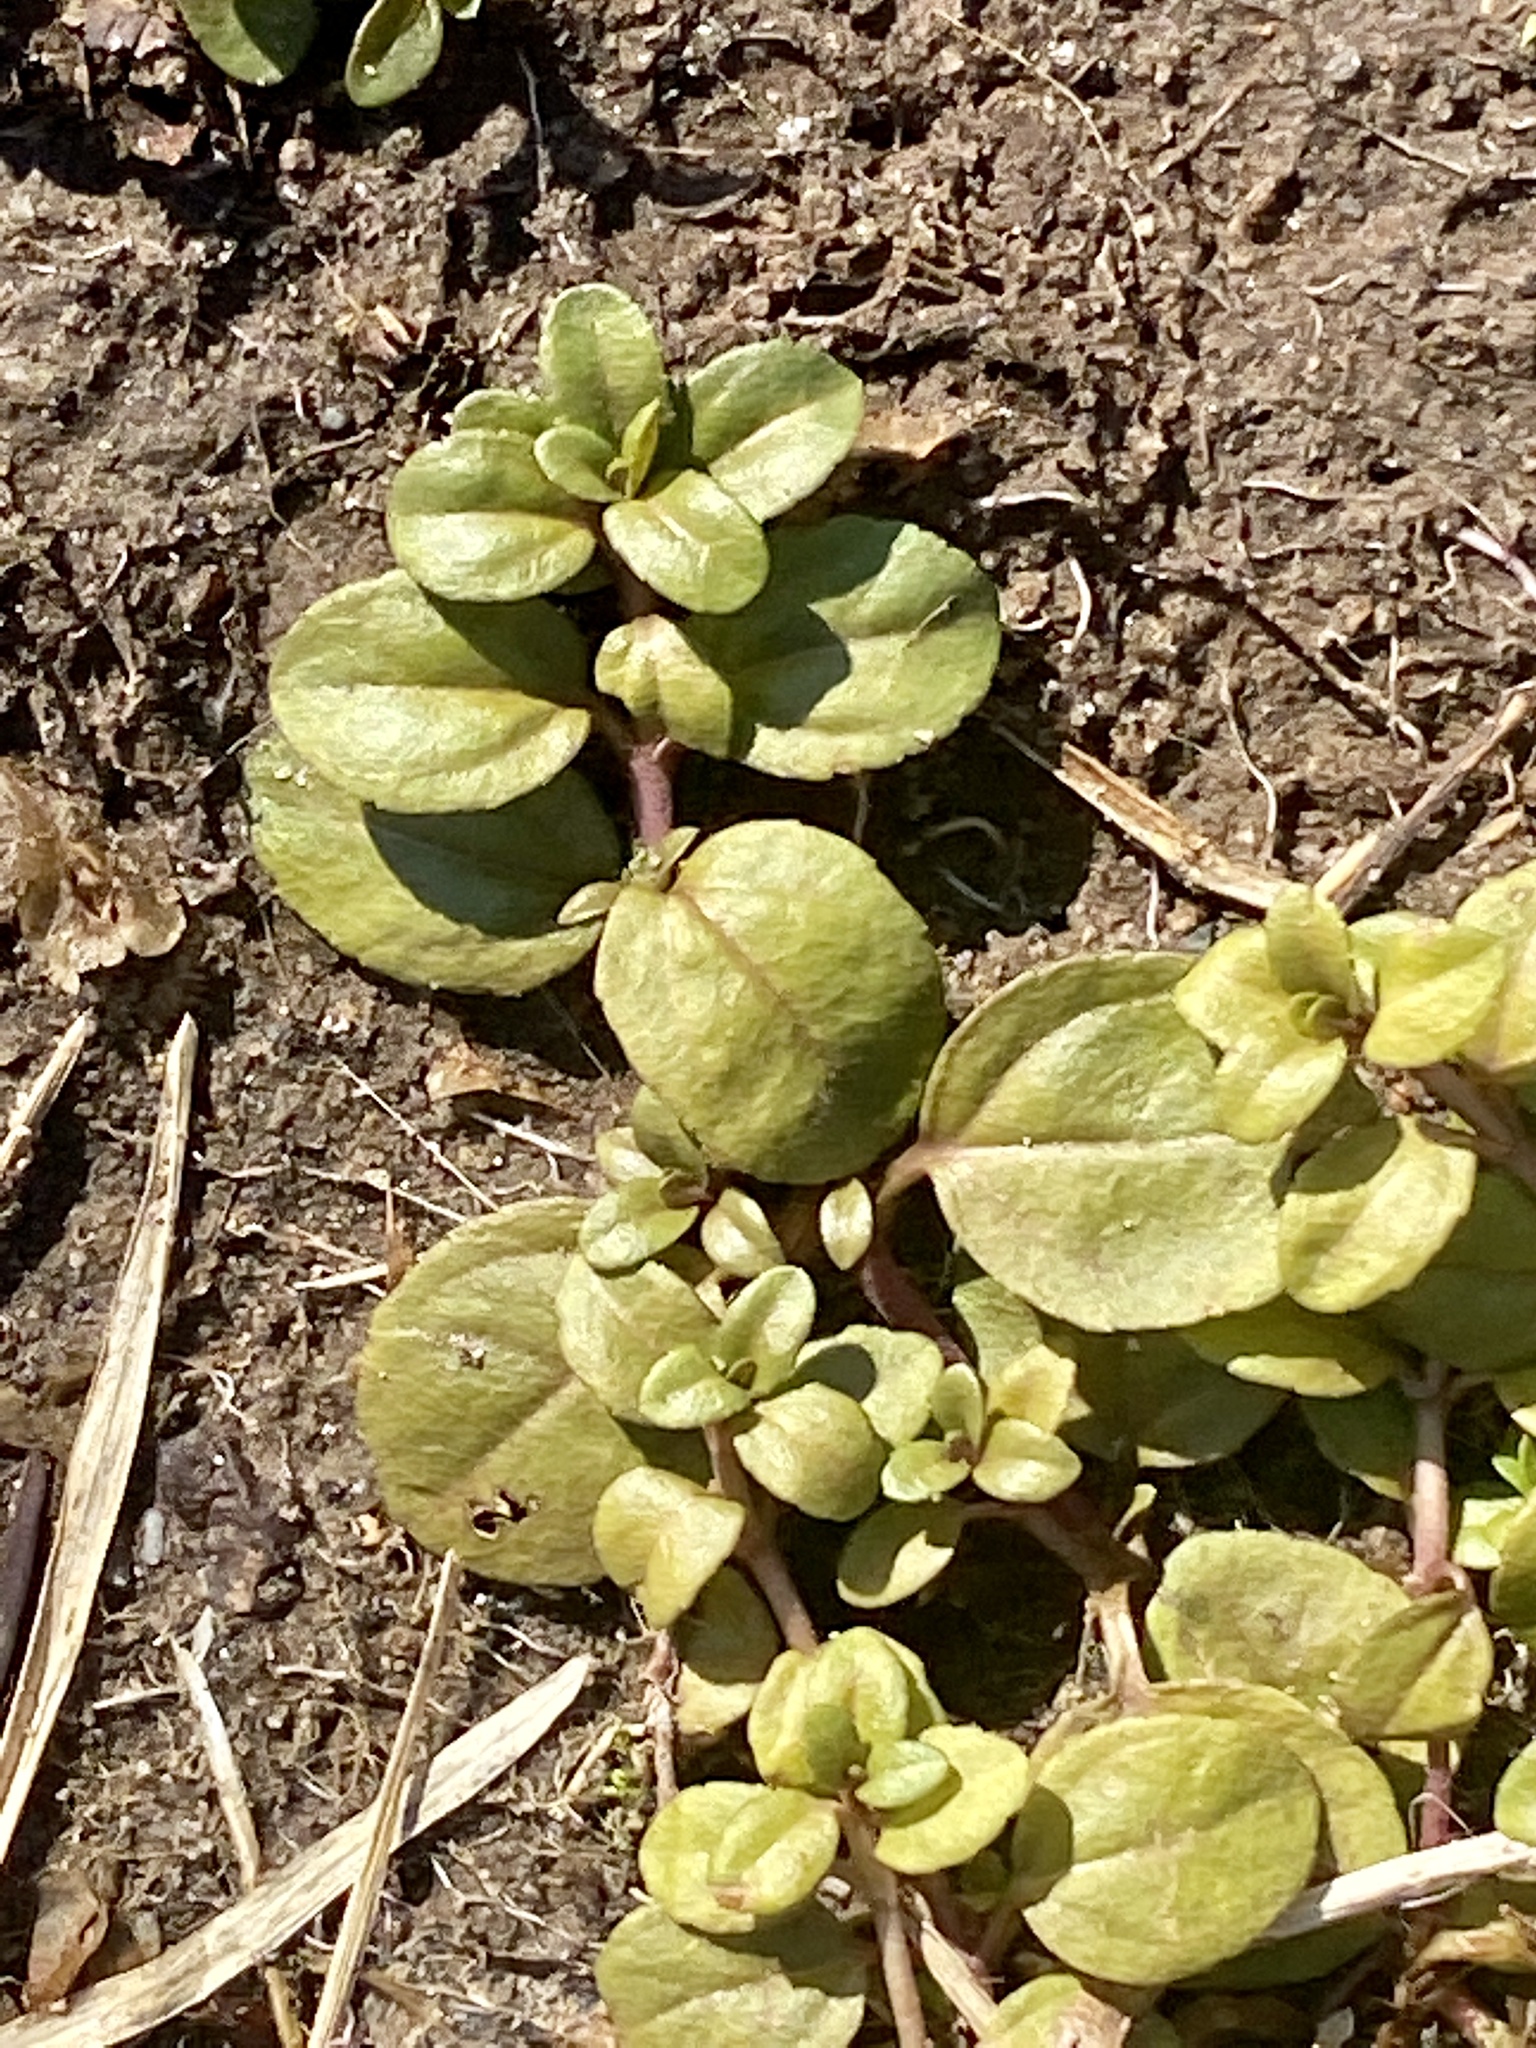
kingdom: Plantae
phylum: Tracheophyta
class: Magnoliopsida
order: Lamiales
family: Plantaginaceae
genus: Veronica
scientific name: Veronica serpyllifolia
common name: Thyme-leaved speedwell
